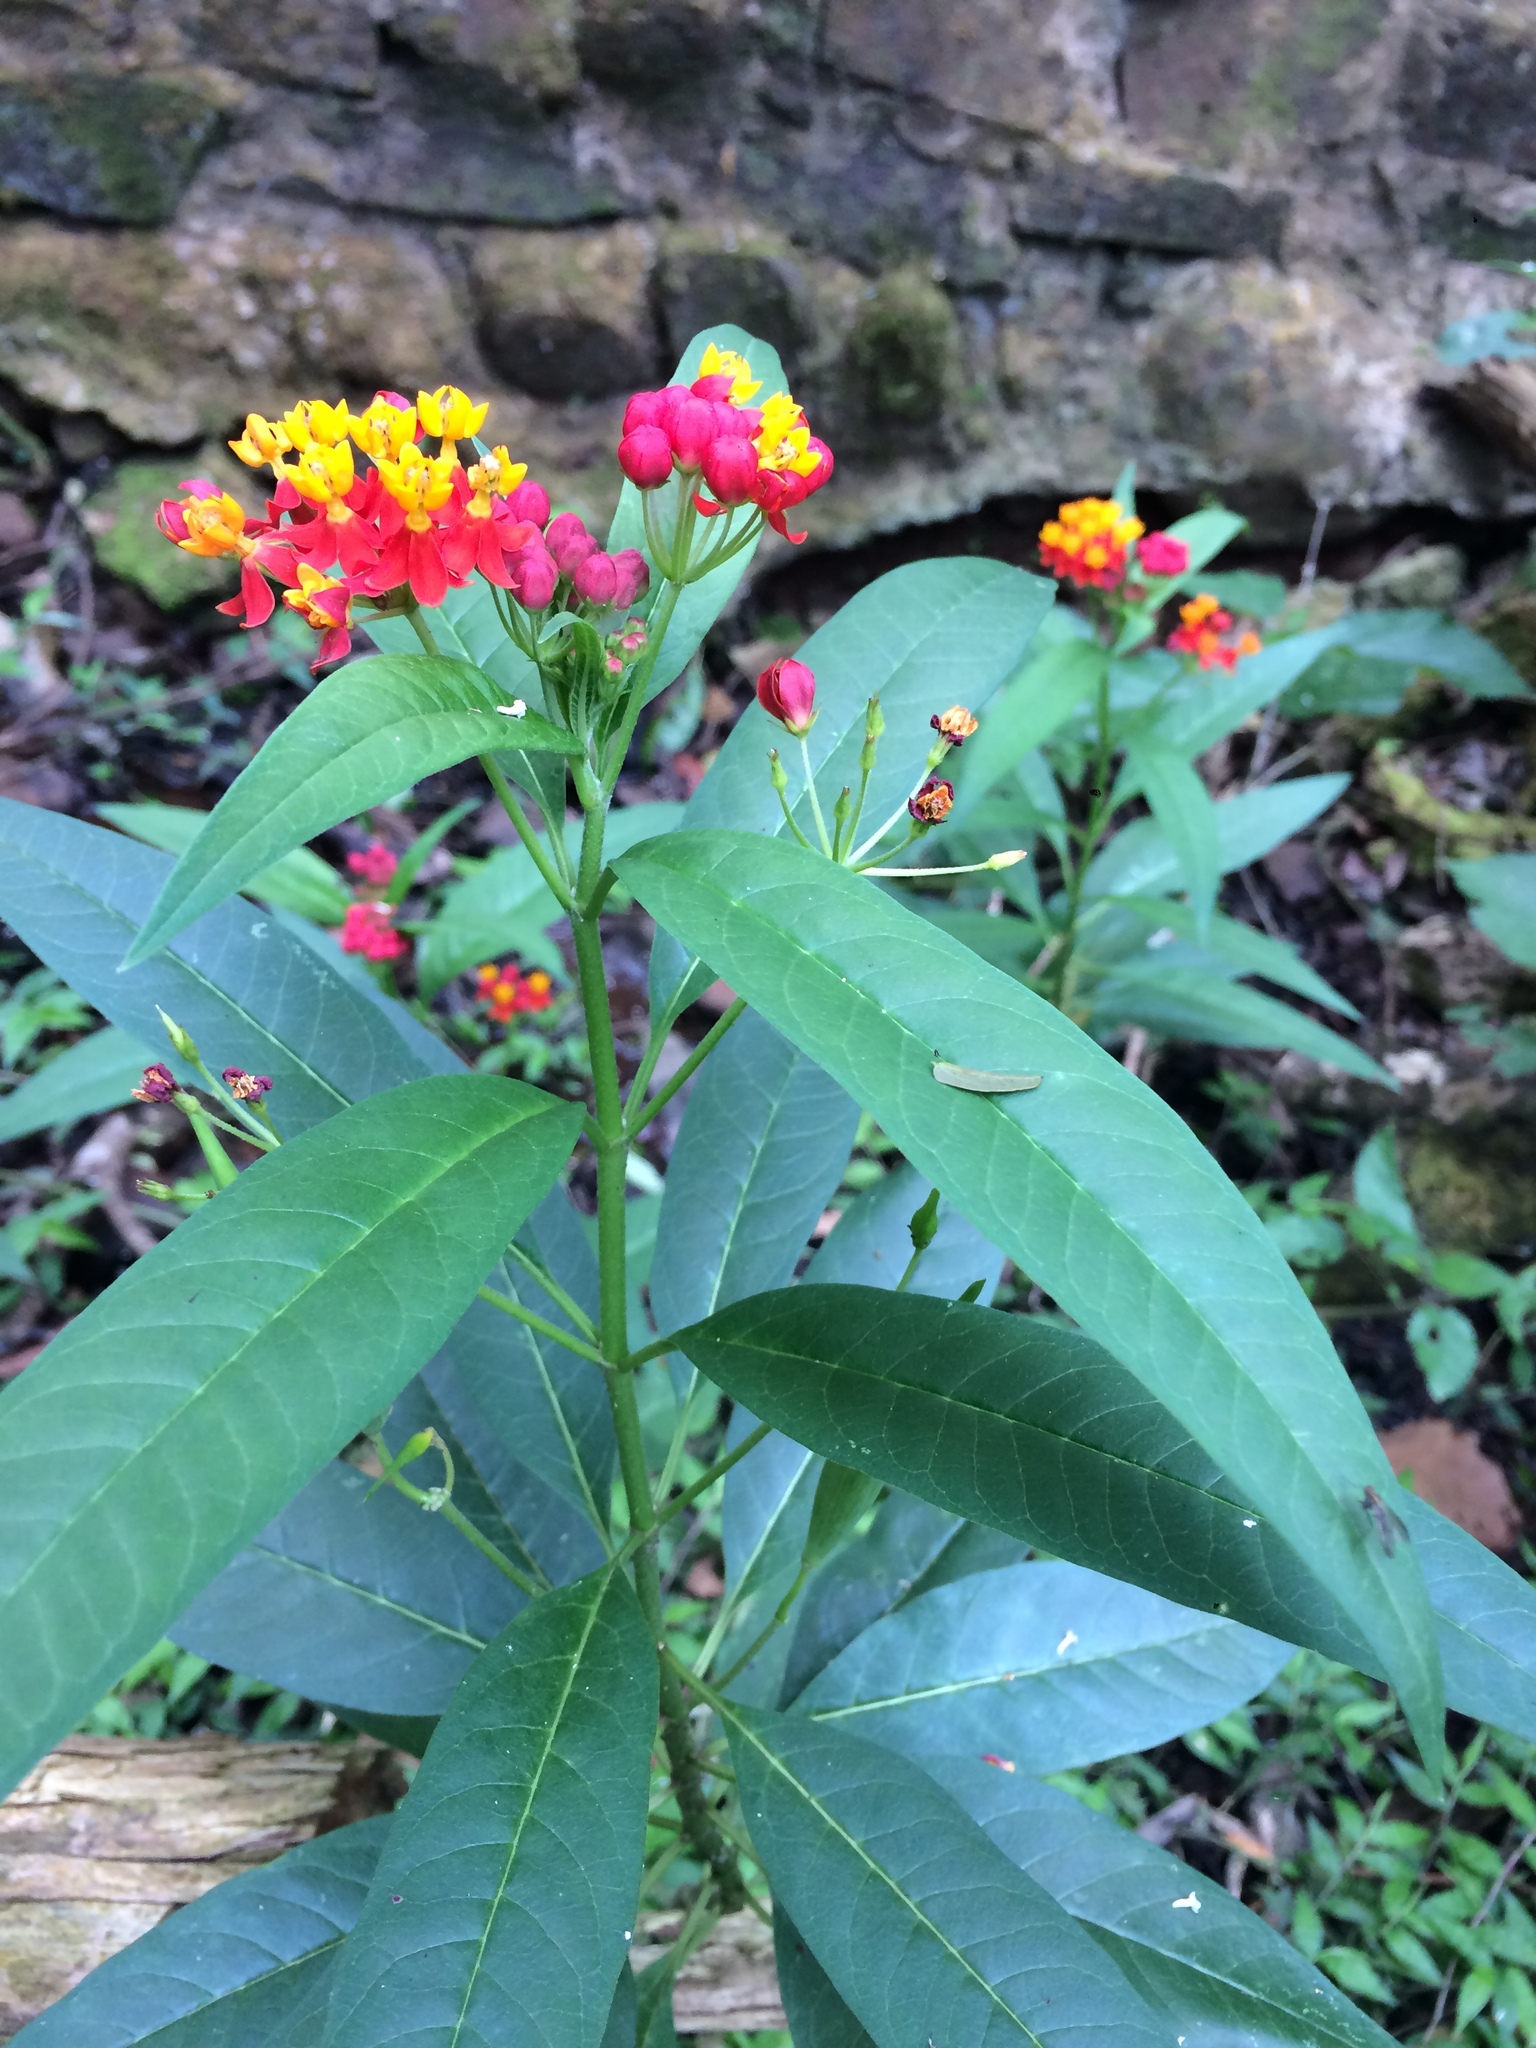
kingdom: Plantae
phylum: Tracheophyta
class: Magnoliopsida
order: Gentianales
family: Apocynaceae
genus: Asclepias
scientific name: Asclepias curassavica
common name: Bloodflower
